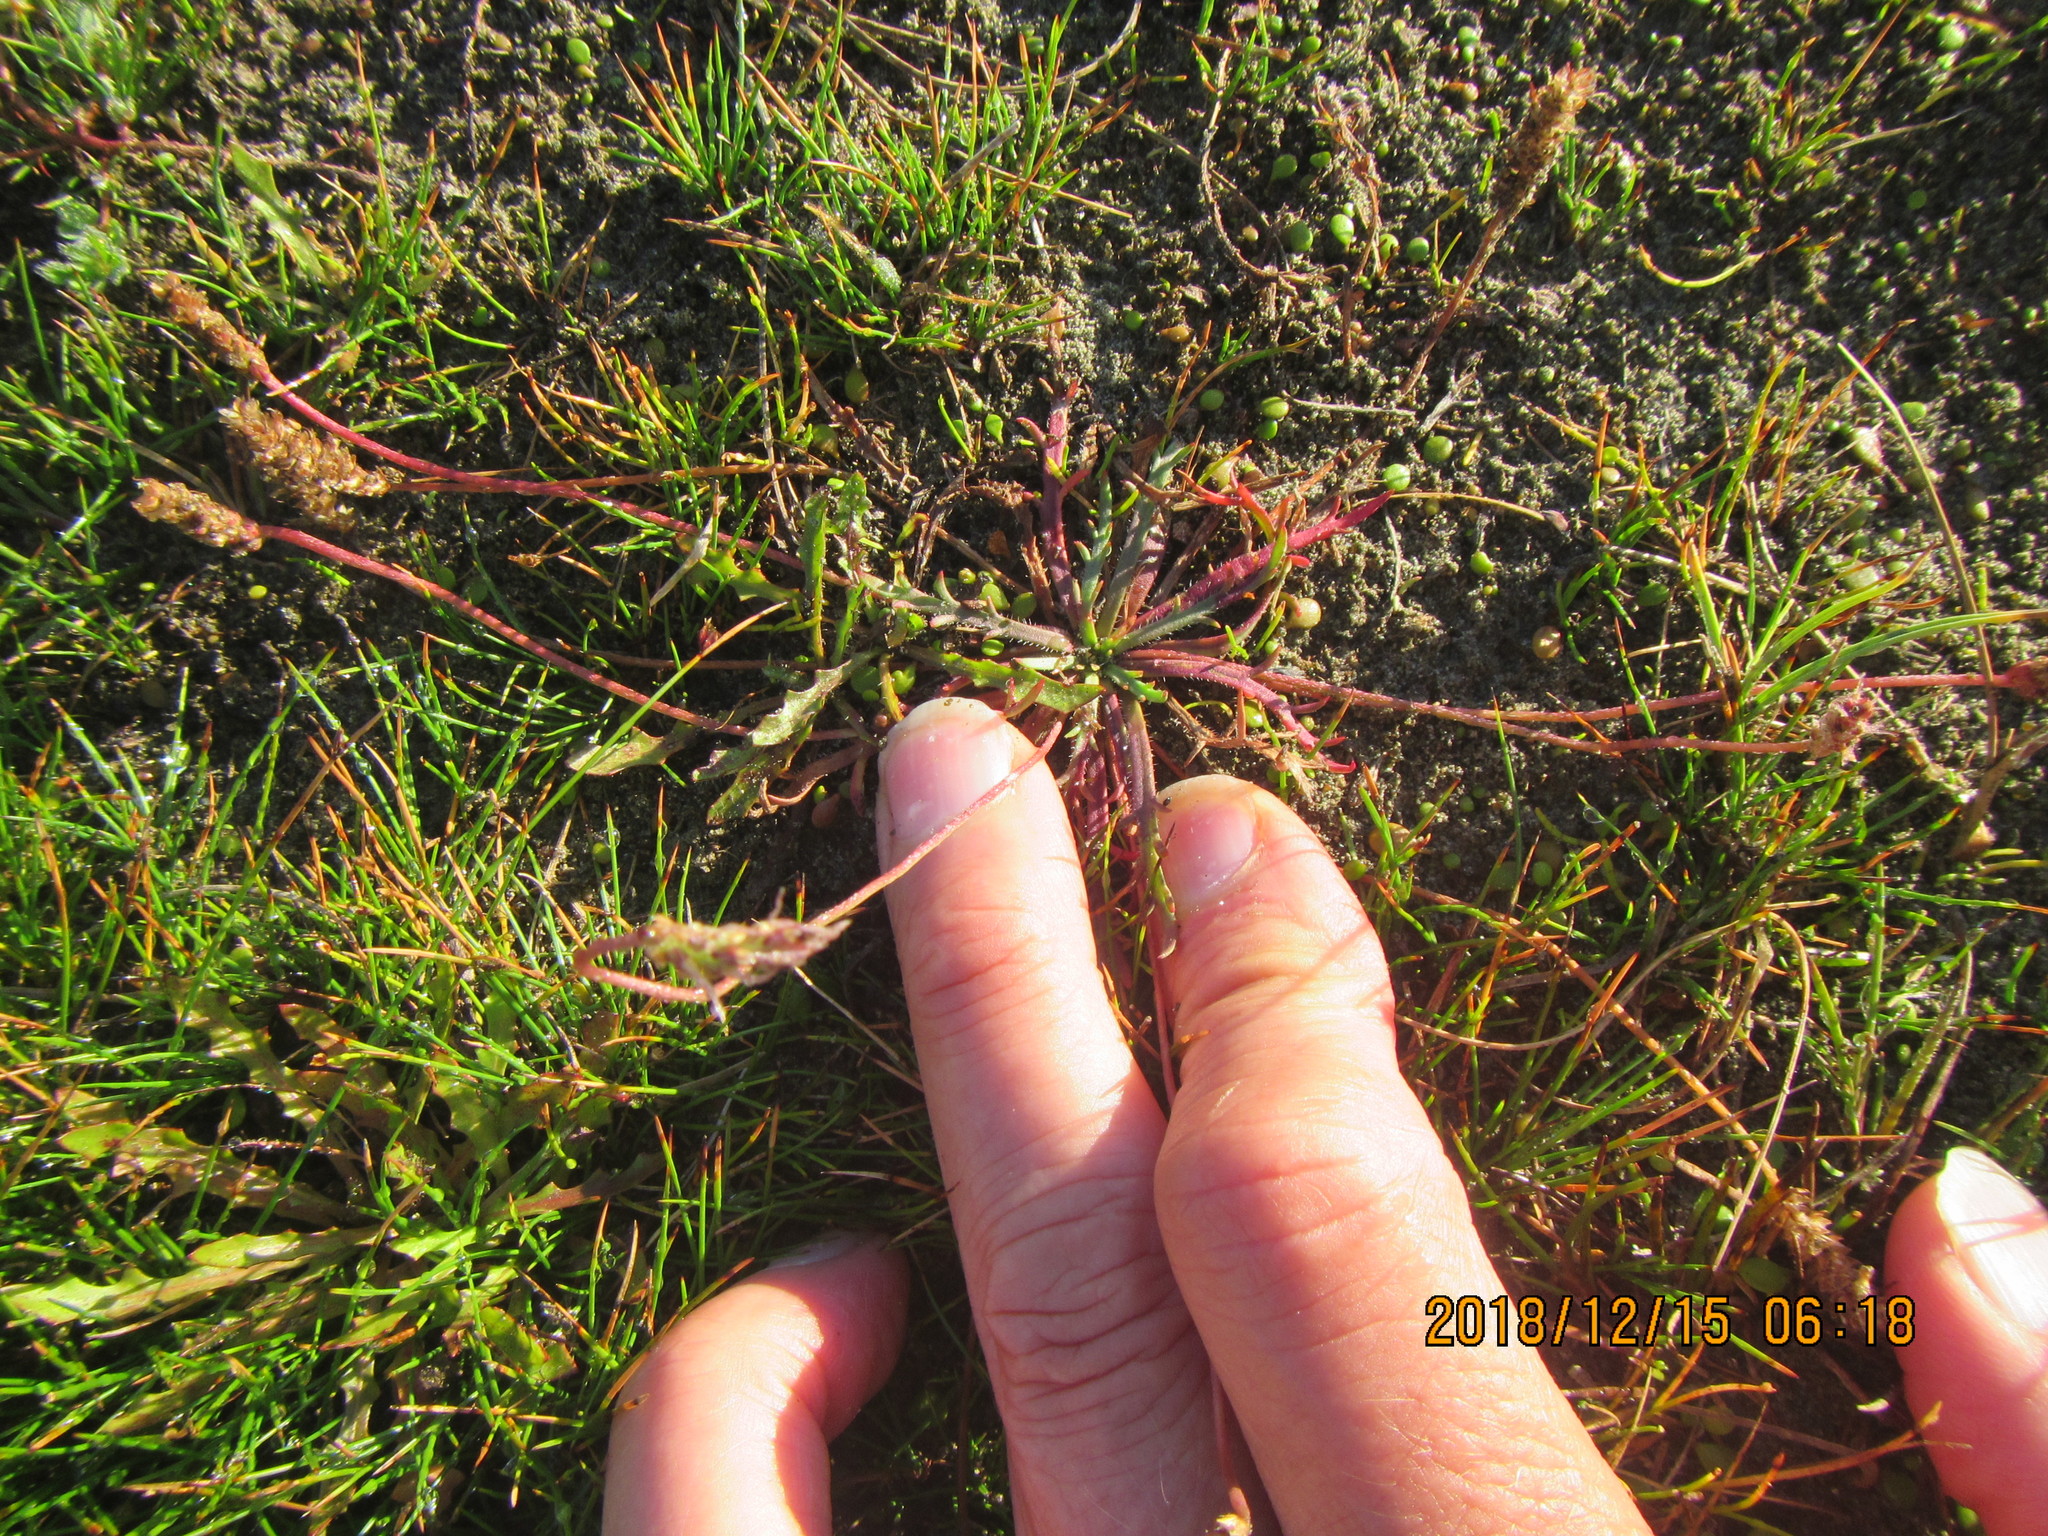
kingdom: Plantae
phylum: Tracheophyta
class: Magnoliopsida
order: Lamiales
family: Plantaginaceae
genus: Plantago
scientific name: Plantago coronopus
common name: Buck's-horn plantain
